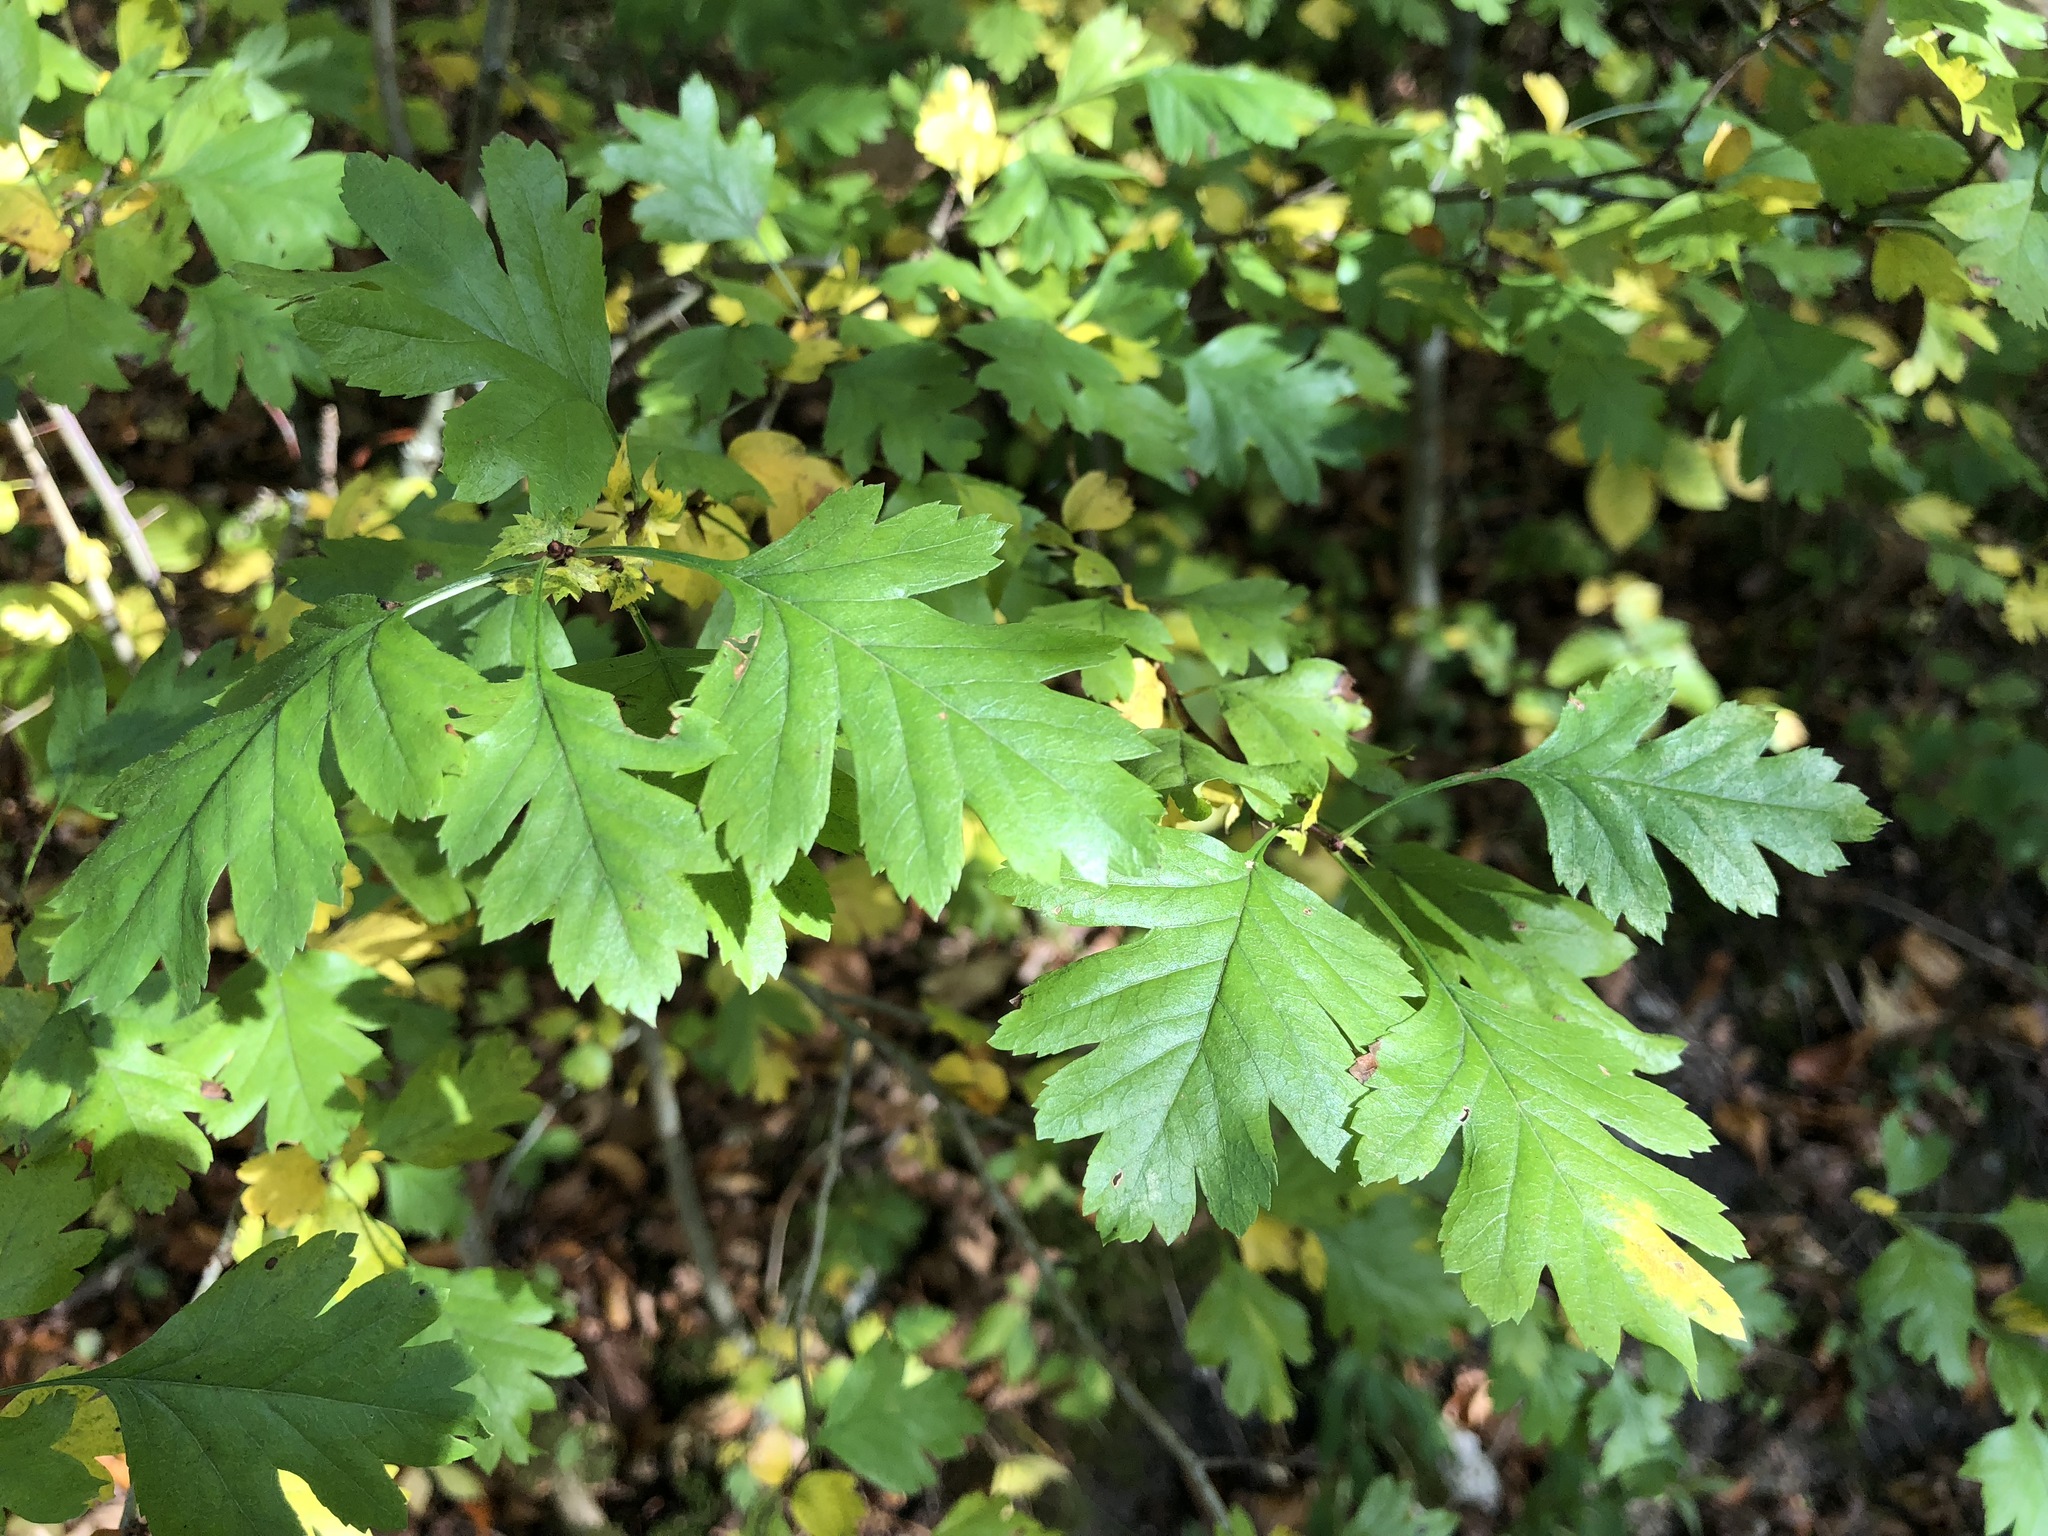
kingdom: Plantae
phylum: Tracheophyta
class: Magnoliopsida
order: Rosales
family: Rosaceae
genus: Crataegus
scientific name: Crataegus monogyna
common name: Hawthorn
